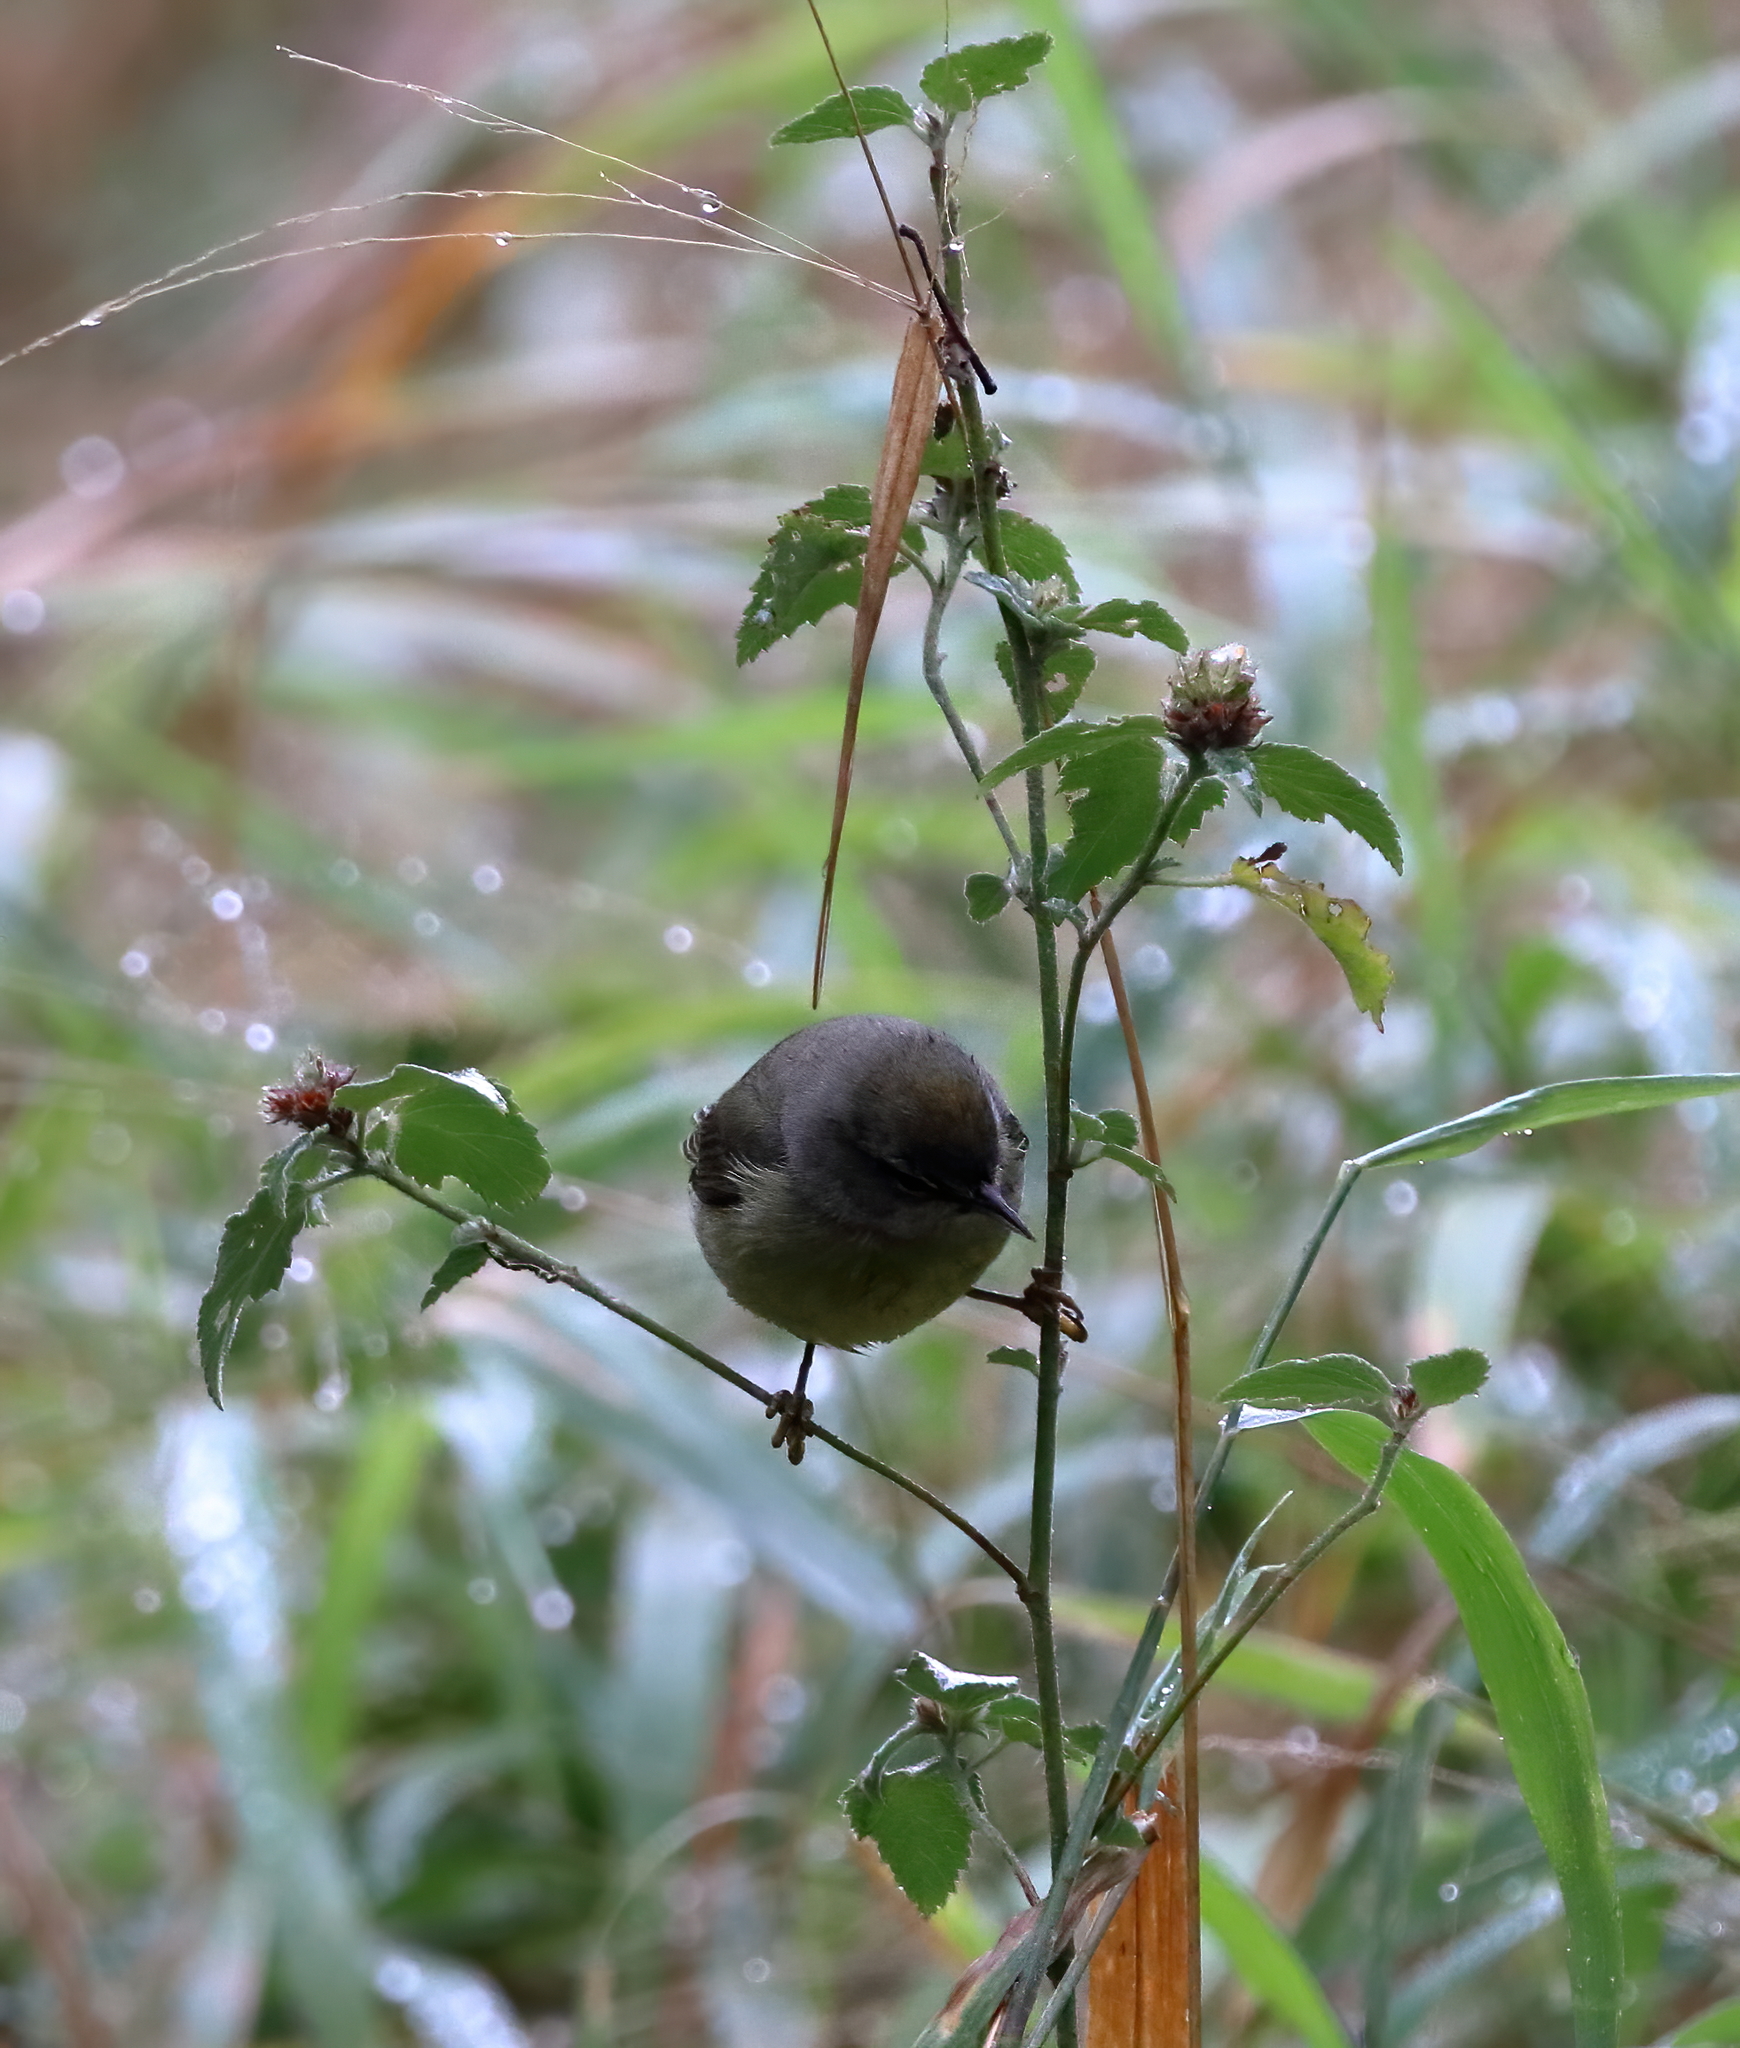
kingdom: Animalia
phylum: Chordata
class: Aves
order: Passeriformes
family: Parulidae
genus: Leiothlypis
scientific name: Leiothlypis celata
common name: Orange-crowned warbler
